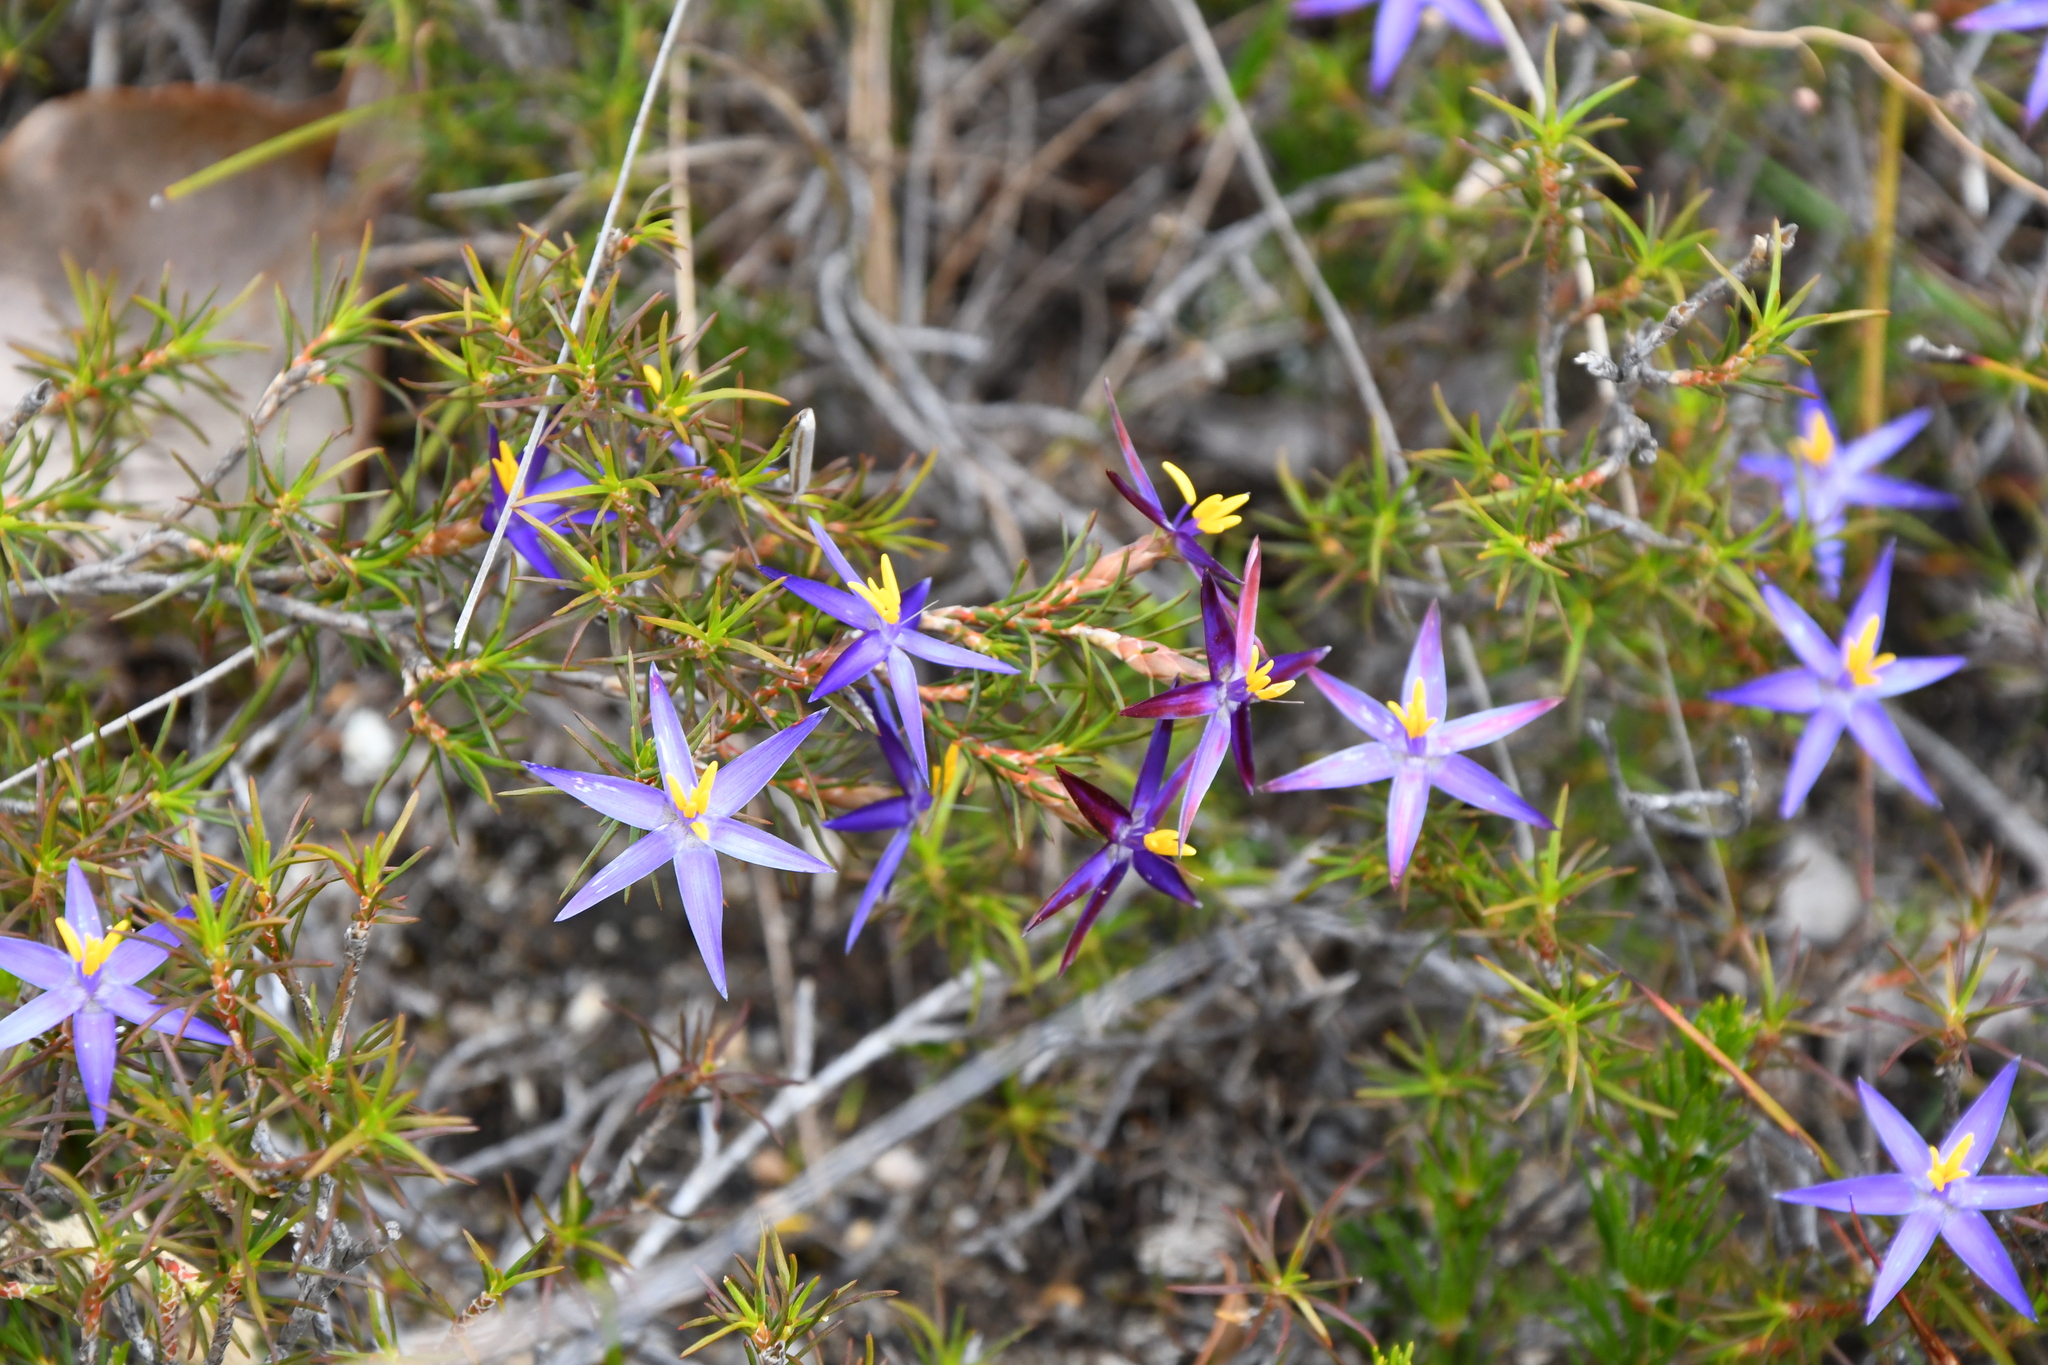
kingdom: Plantae
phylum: Tracheophyta
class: Liliopsida
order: Arecales
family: Dasypogonaceae
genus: Calectasia
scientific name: Calectasia demarzii
